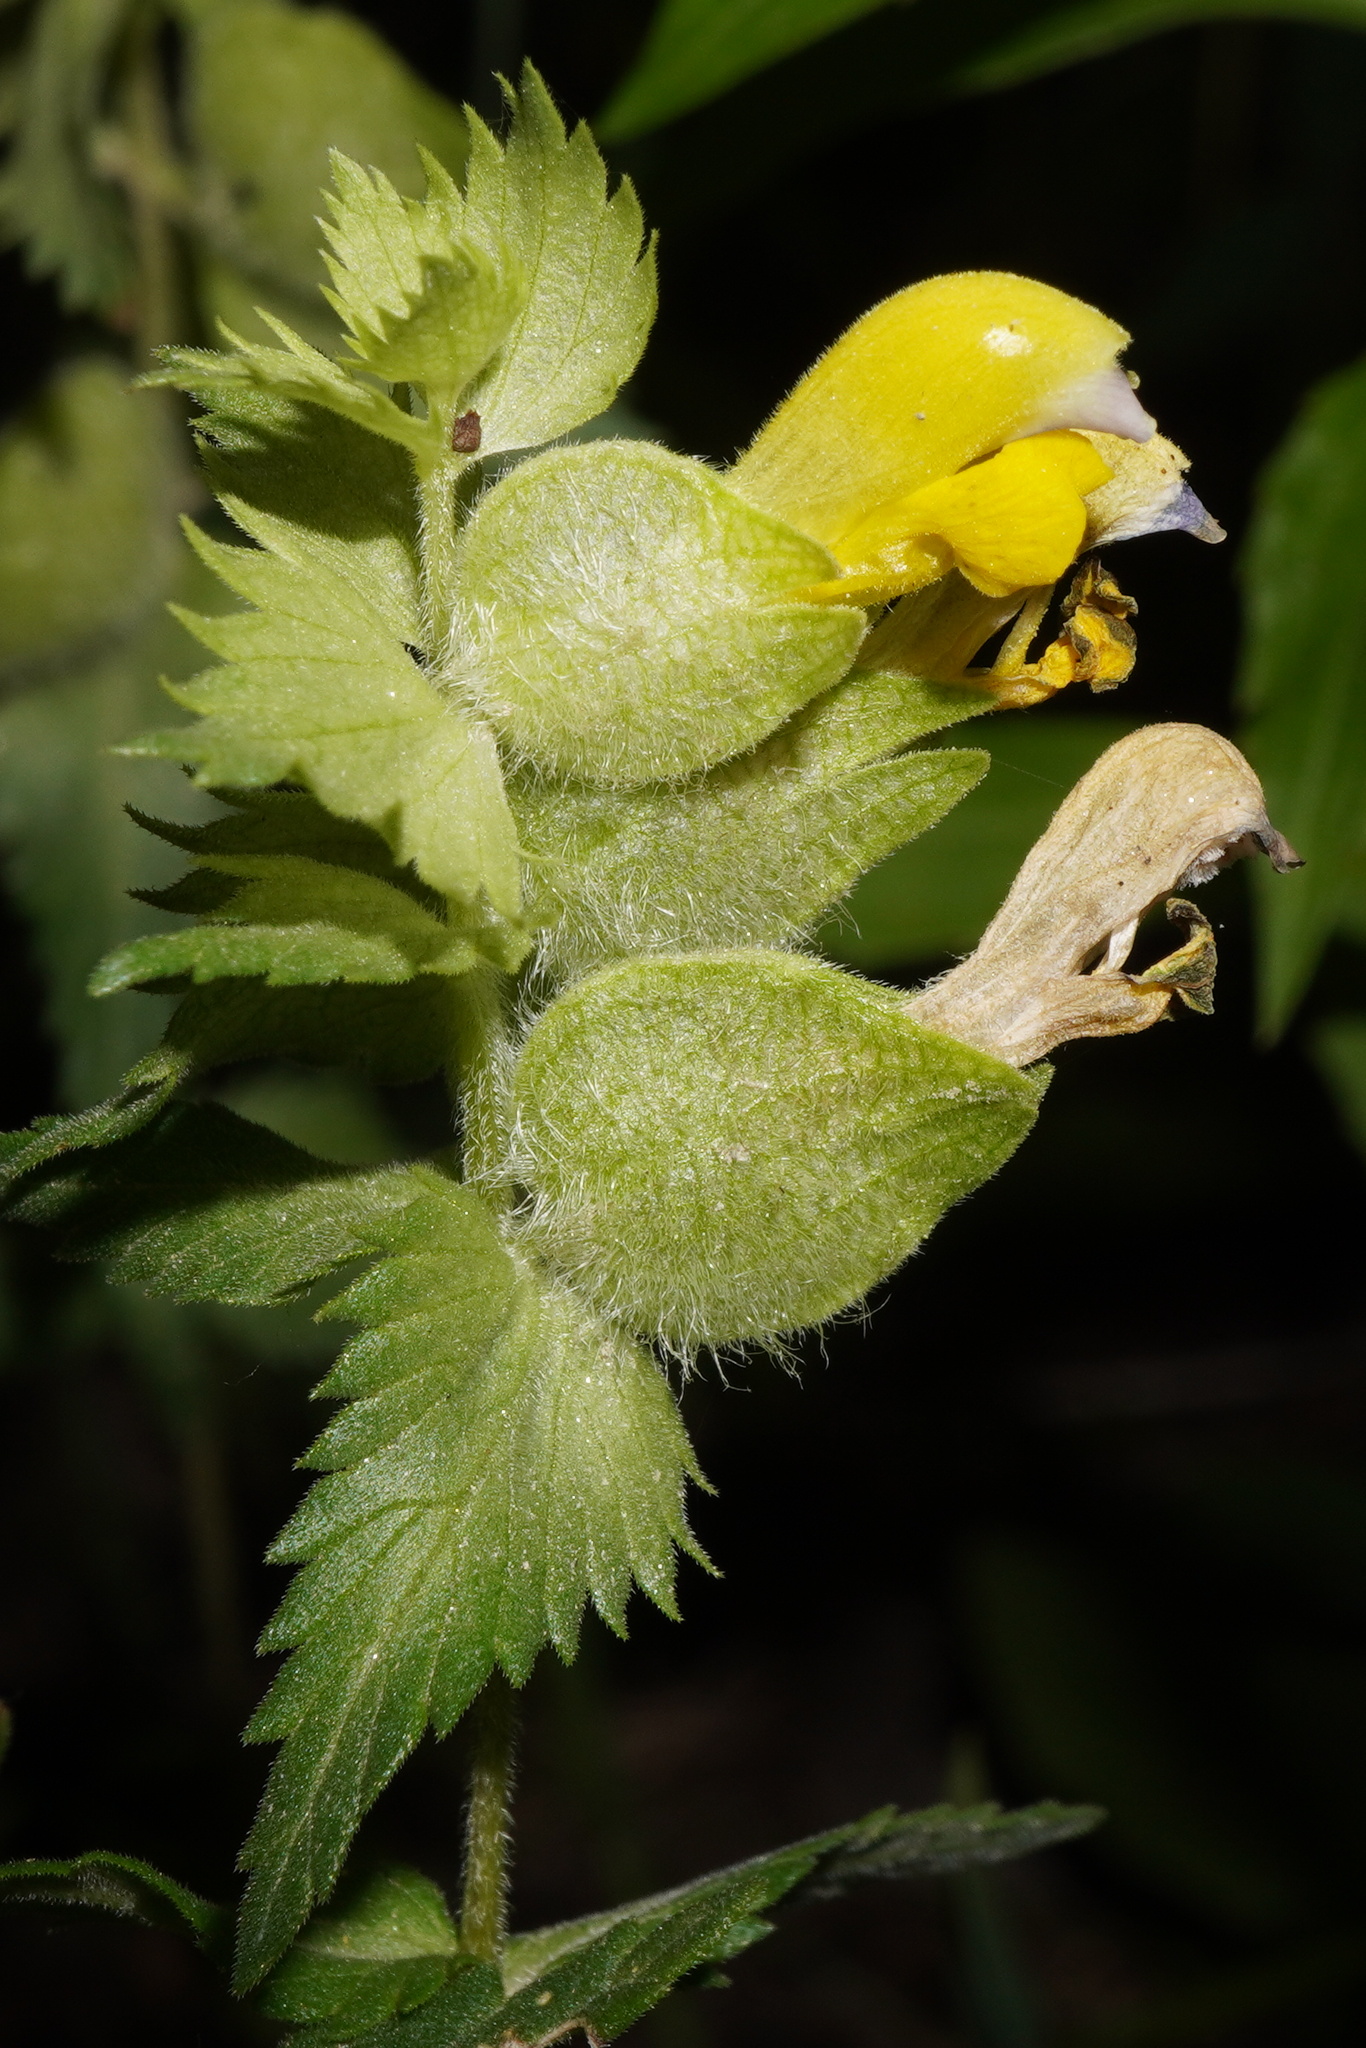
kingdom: Plantae
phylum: Tracheophyta
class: Magnoliopsida
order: Lamiales
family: Orobanchaceae
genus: Rhinanthus
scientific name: Rhinanthus alectorolophus
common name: Greater yellow-rattle
